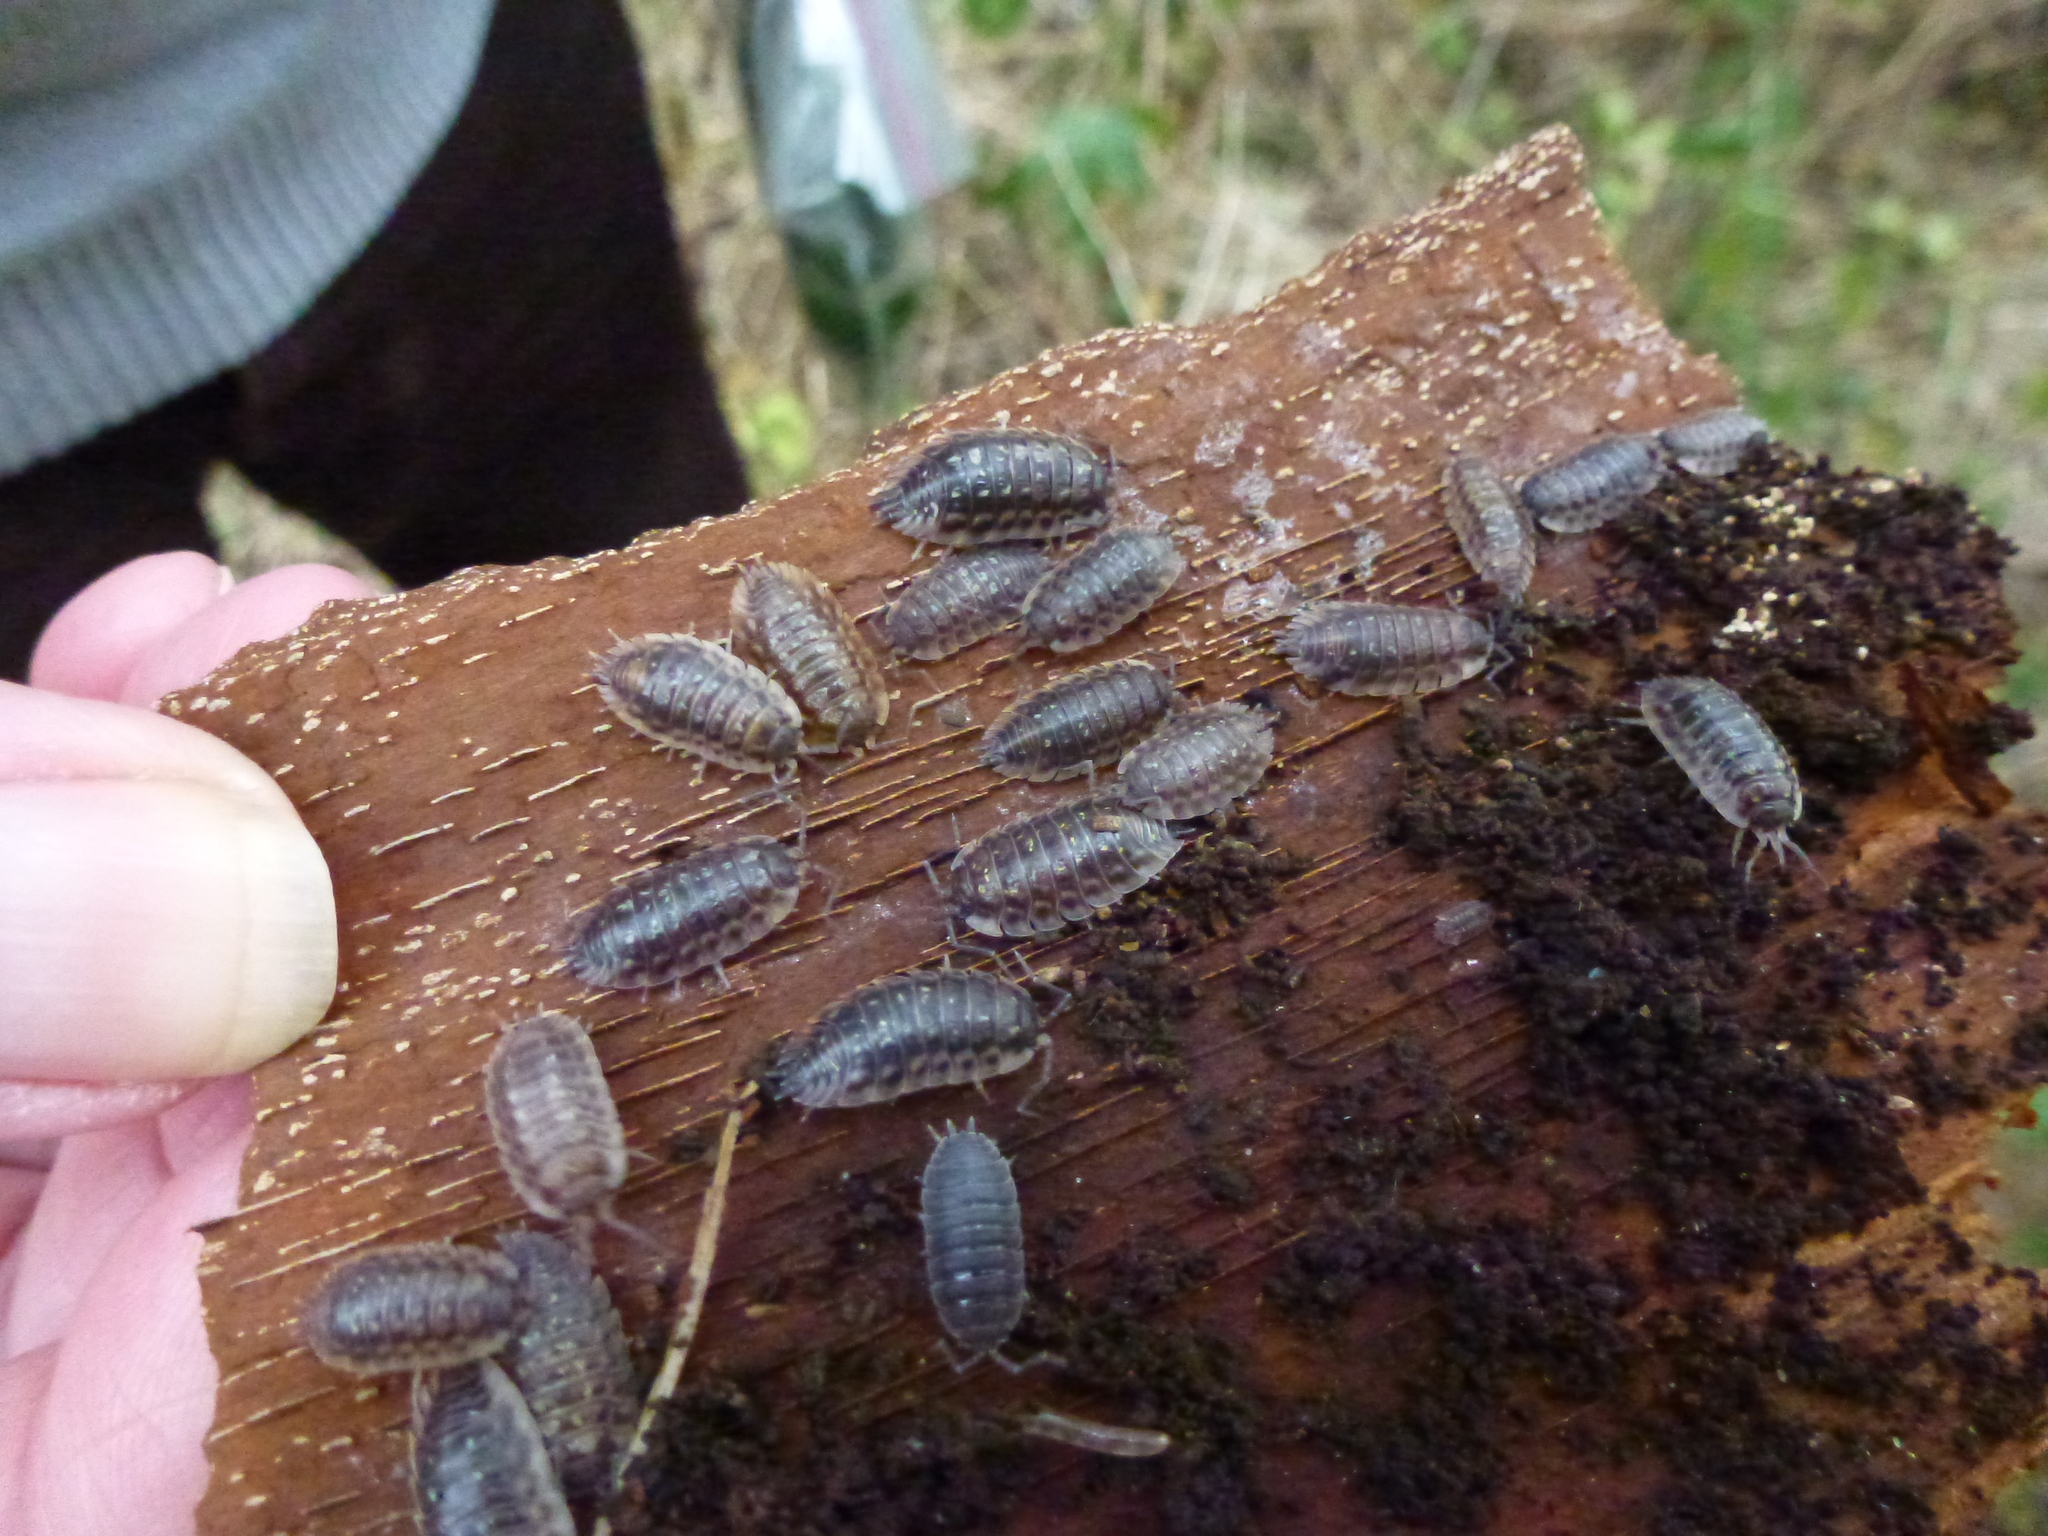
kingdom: Animalia
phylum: Arthropoda
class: Malacostraca
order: Isopoda
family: Oniscidae
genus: Oniscus
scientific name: Oniscus asellus
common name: Common shiny woodlouse
